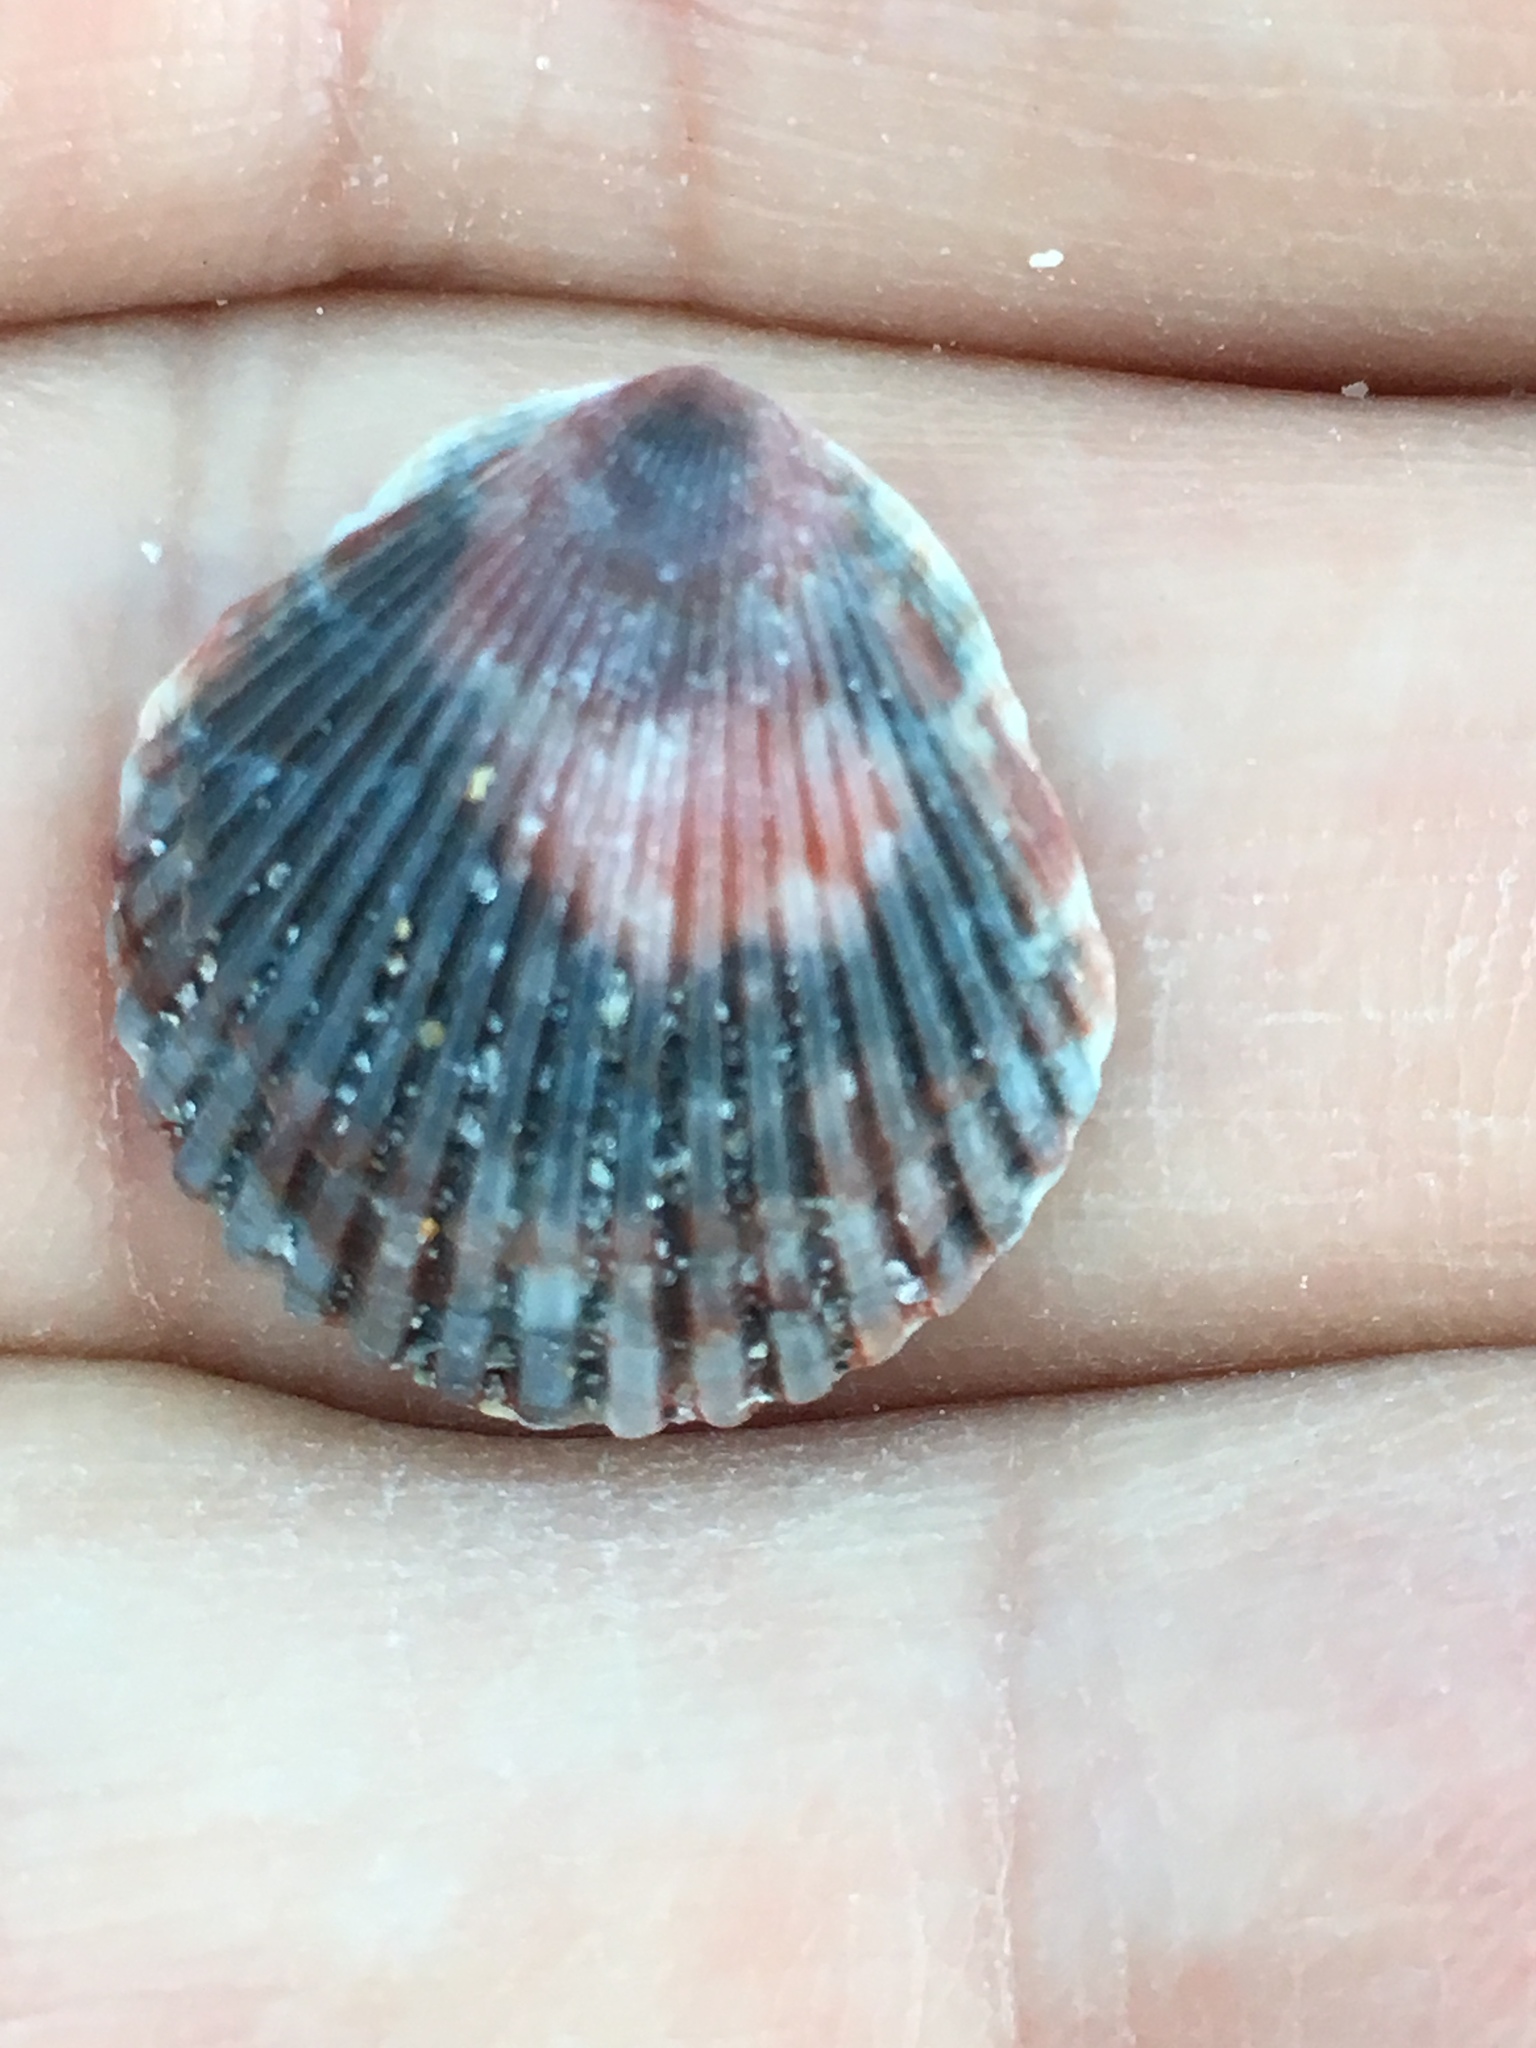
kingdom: Animalia
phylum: Mollusca
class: Bivalvia
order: Pectinida
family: Pectinidae
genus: Argopecten
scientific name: Argopecten gibbus
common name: Atlantic calico scallop
